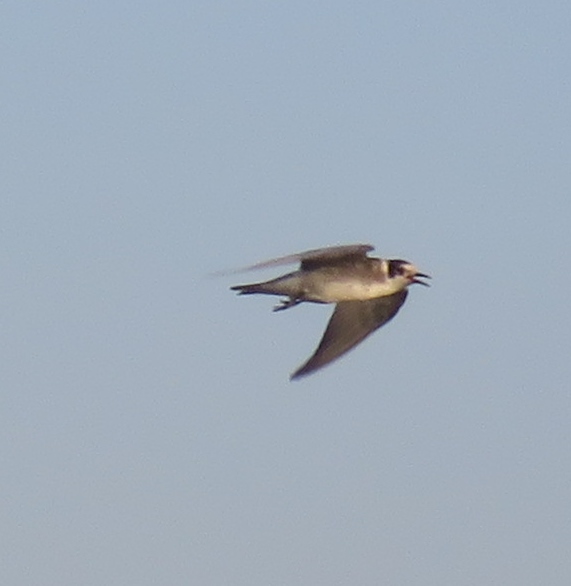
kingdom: Animalia
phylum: Chordata
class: Aves
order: Charadriiformes
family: Laridae
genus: Chlidonias
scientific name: Chlidonias niger
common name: Black tern
